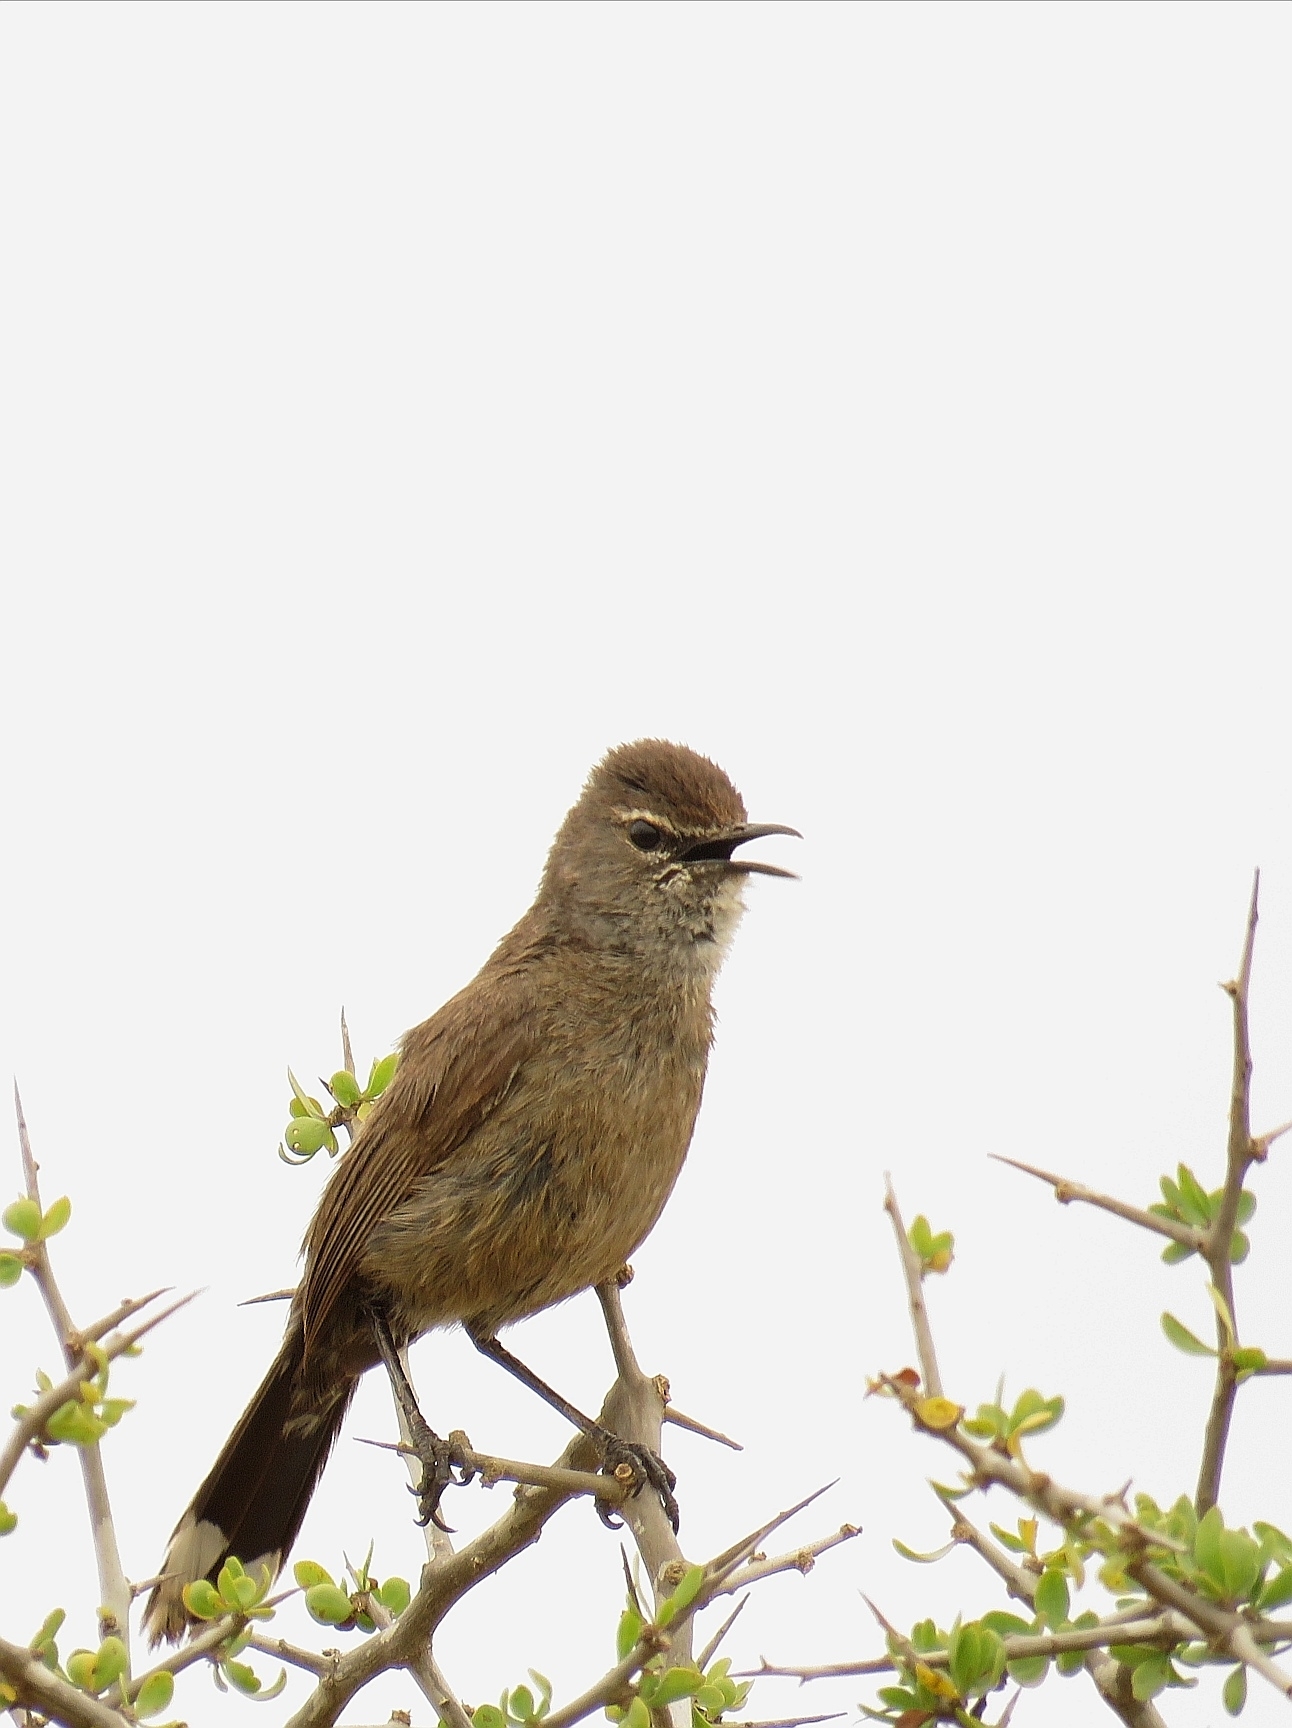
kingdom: Animalia
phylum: Chordata
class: Aves
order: Passeriformes
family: Muscicapidae
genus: Erythropygia
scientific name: Erythropygia coryphoeus
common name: Karoo scrub robin
